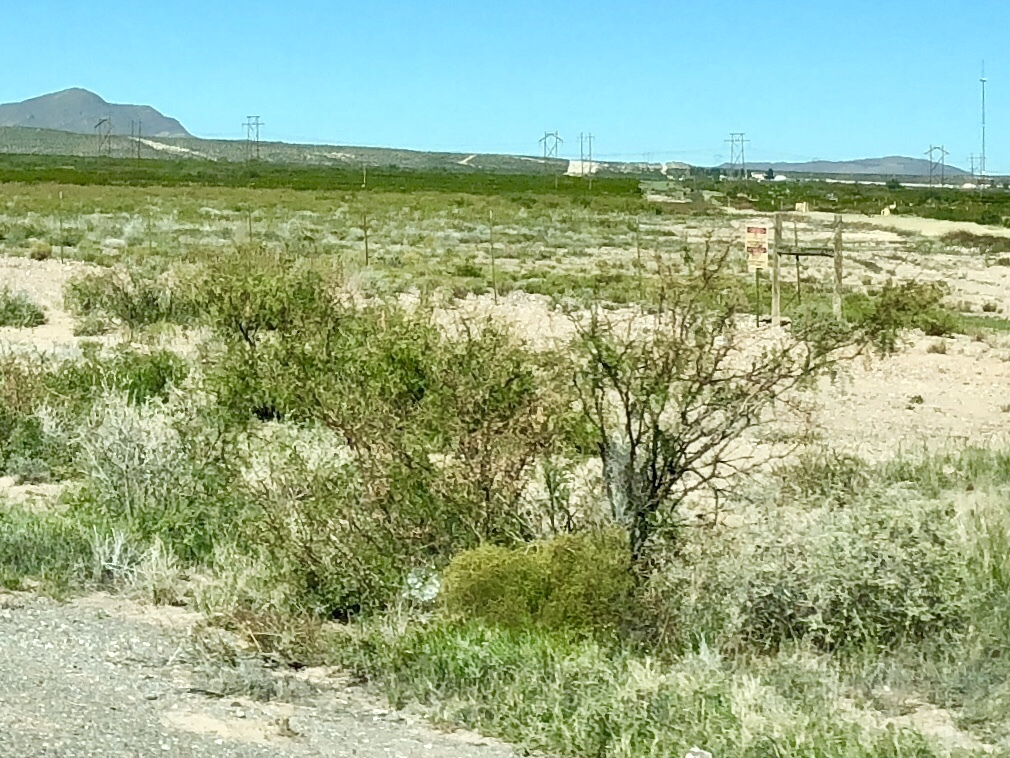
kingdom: Plantae
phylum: Tracheophyta
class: Magnoliopsida
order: Zygophyllales
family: Zygophyllaceae
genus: Larrea
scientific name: Larrea tridentata
